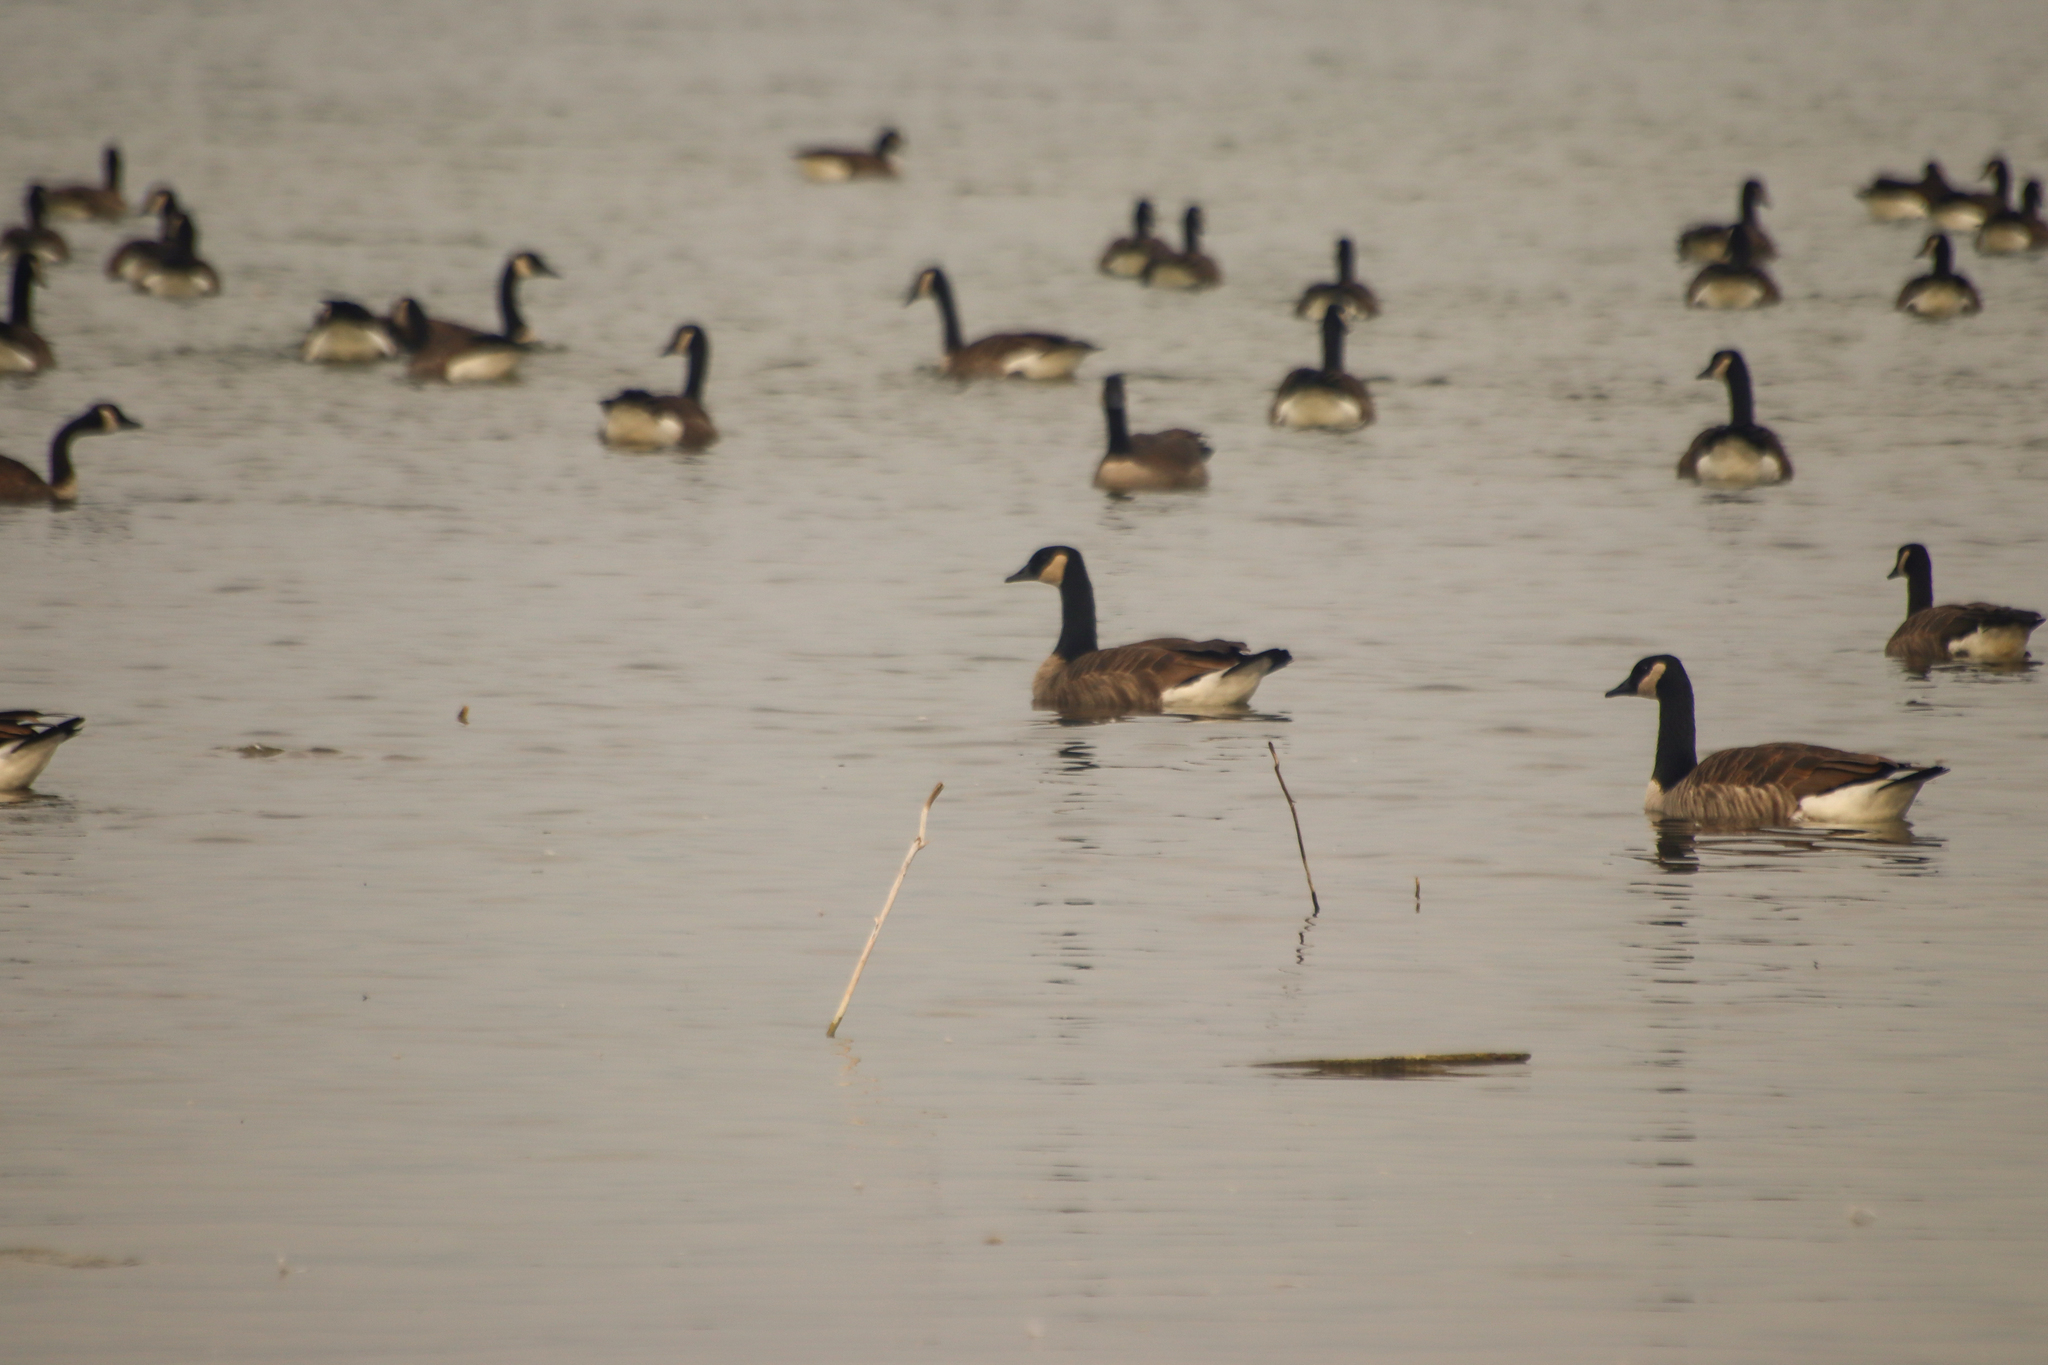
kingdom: Animalia
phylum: Chordata
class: Aves
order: Anseriformes
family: Anatidae
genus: Branta
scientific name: Branta canadensis
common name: Canada goose
